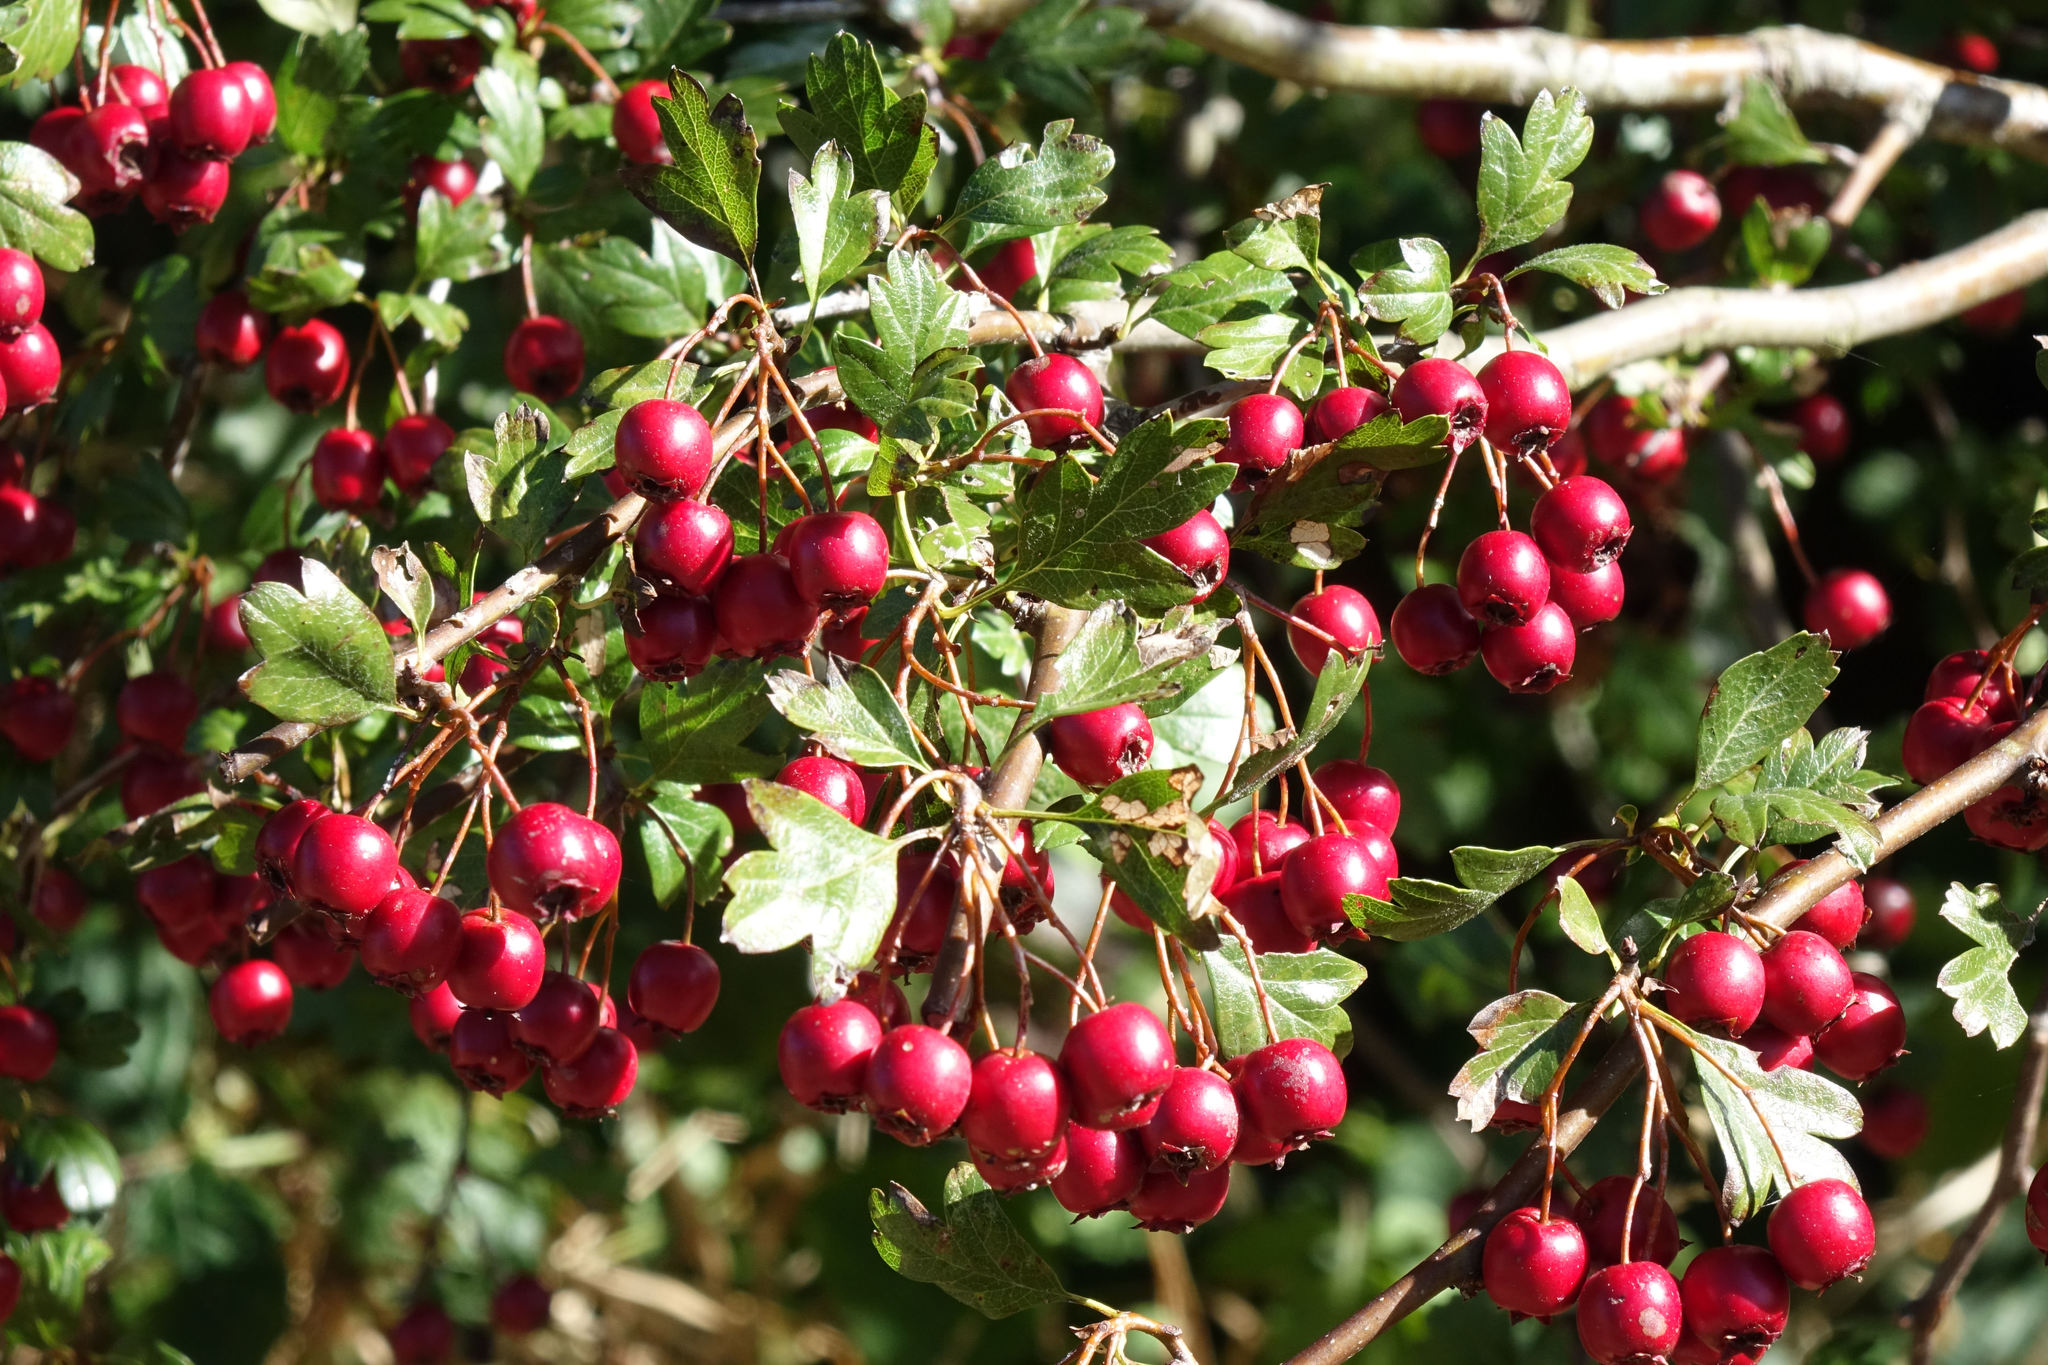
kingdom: Plantae
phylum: Tracheophyta
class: Magnoliopsida
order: Rosales
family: Rosaceae
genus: Crataegus
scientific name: Crataegus monogyna
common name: Hawthorn
